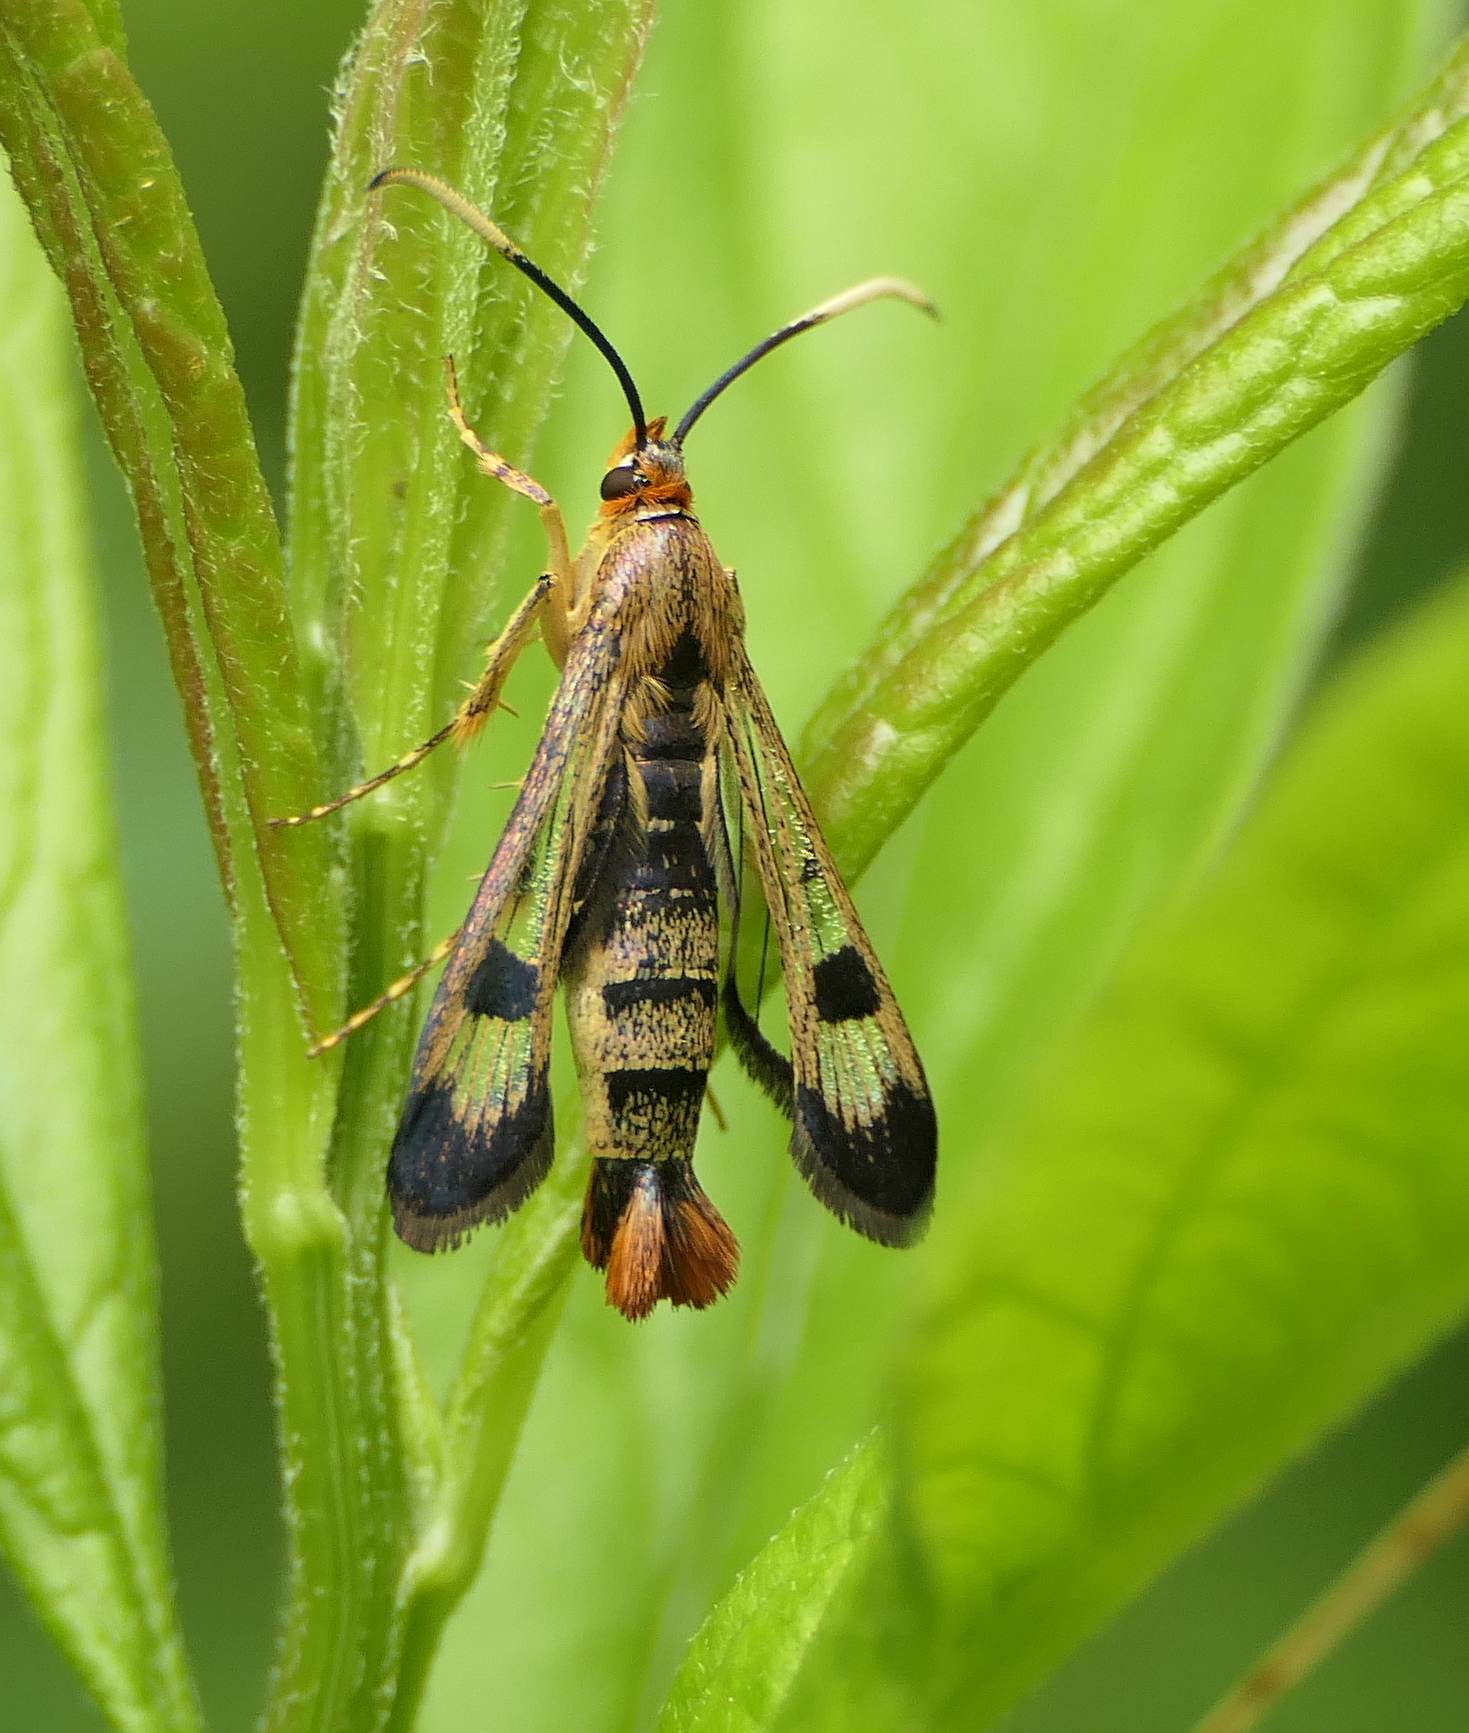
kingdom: Animalia
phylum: Arthropoda
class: Insecta
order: Lepidoptera
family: Sesiidae
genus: Carmenta
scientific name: Carmenta corni
